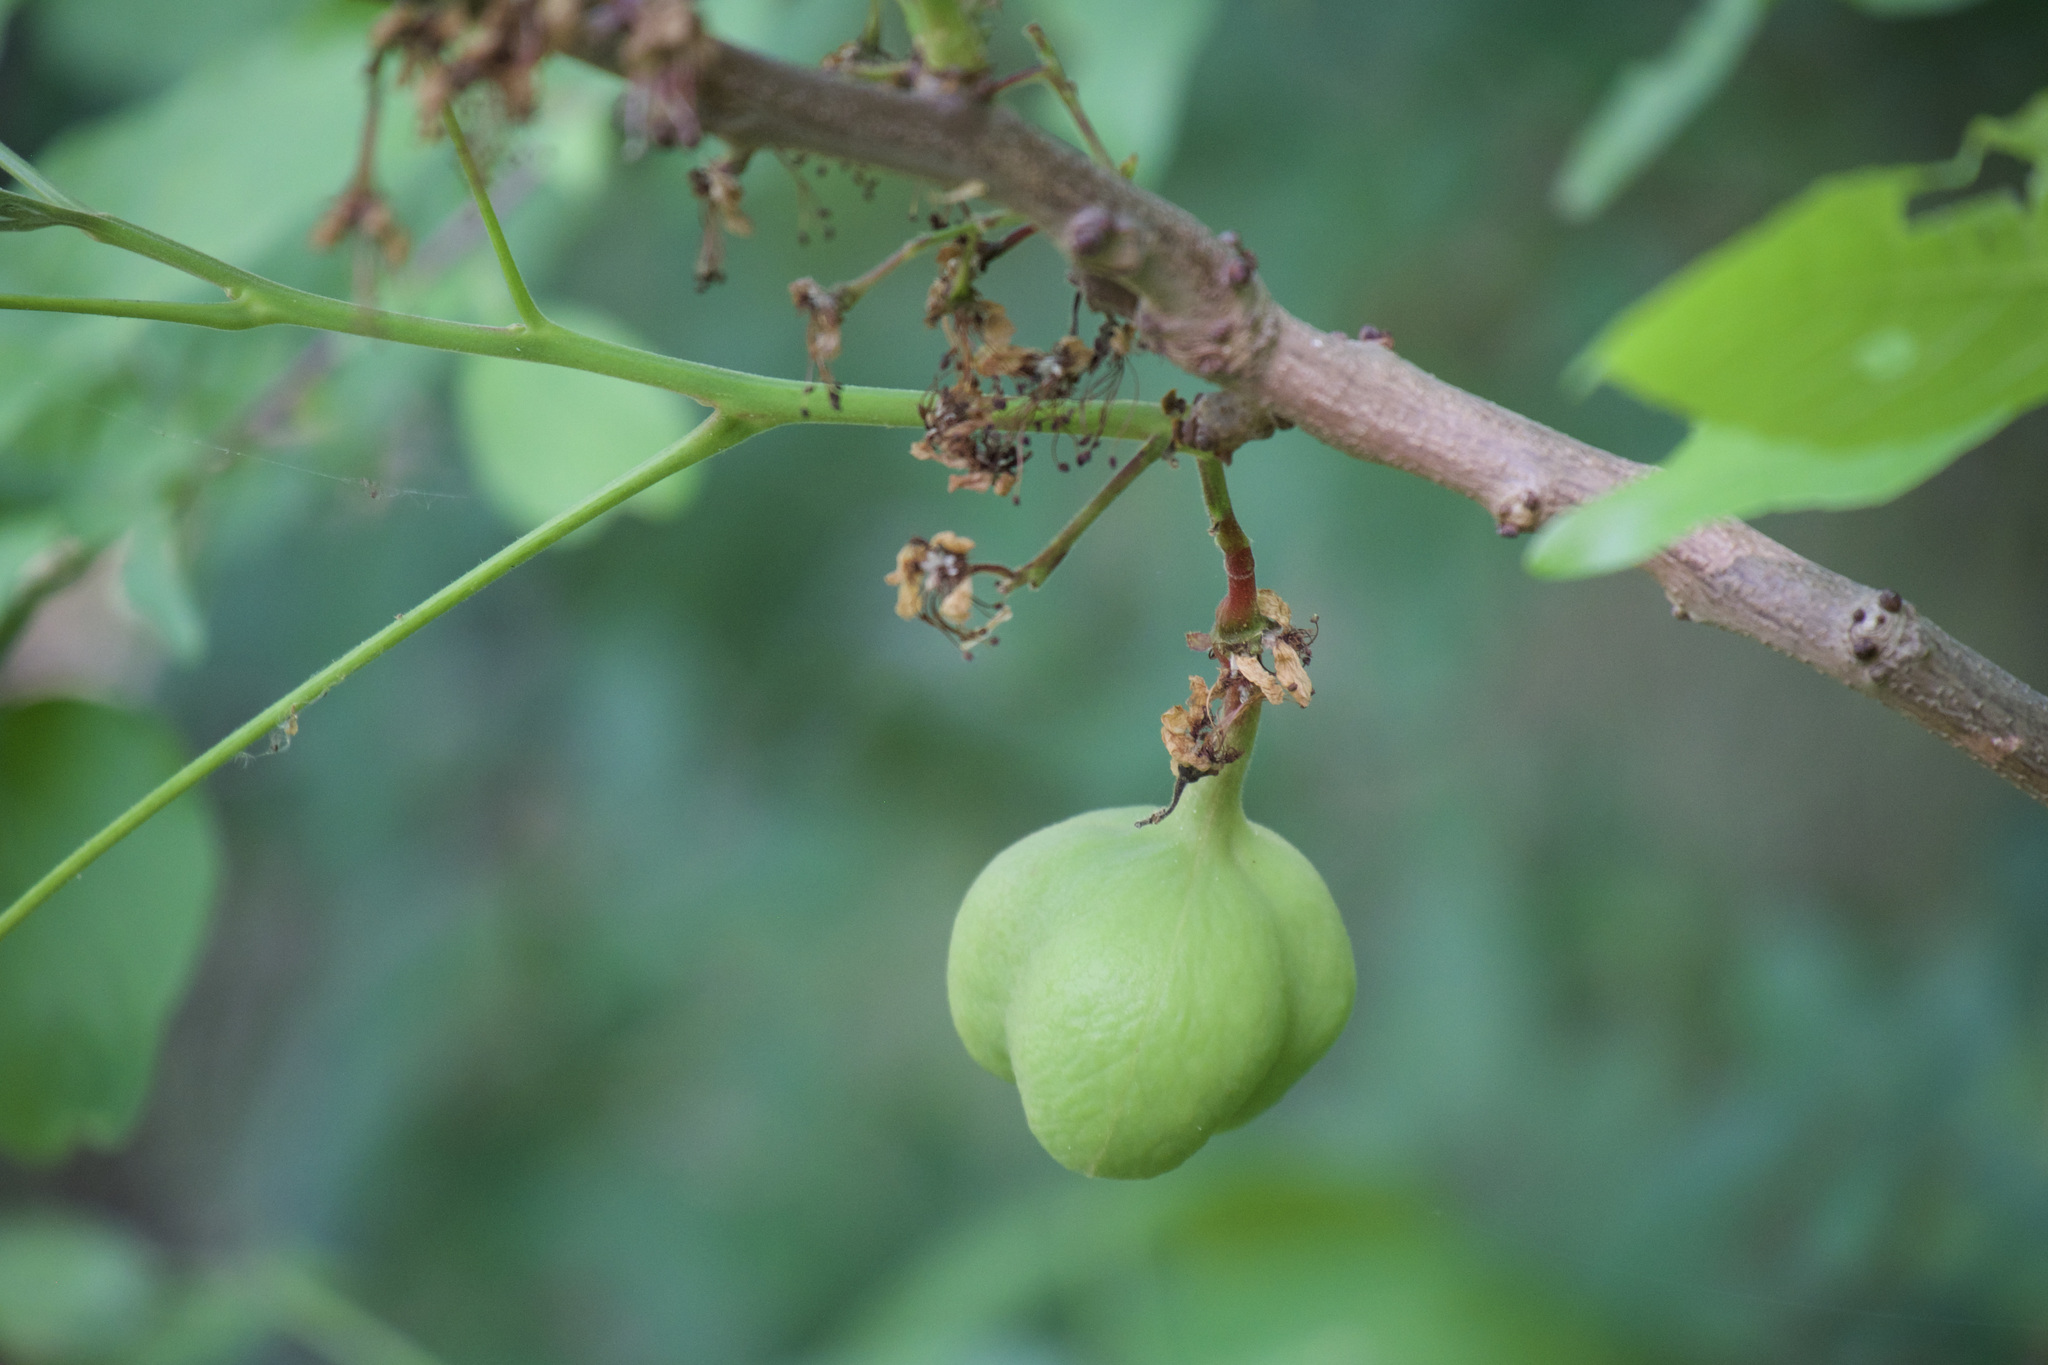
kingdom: Plantae
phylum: Tracheophyta
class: Magnoliopsida
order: Sapindales
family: Sapindaceae
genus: Ungnadia
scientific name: Ungnadia speciosa
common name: Texas-buckeye
